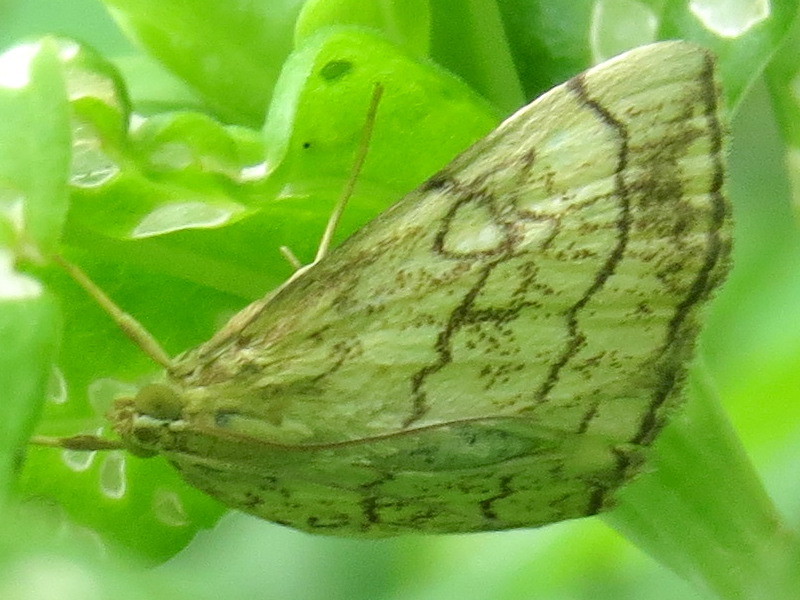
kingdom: Animalia
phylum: Arthropoda
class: Insecta
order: Lepidoptera
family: Crambidae
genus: Evergestis
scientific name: Evergestis pallidata
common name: Chequered pearl
